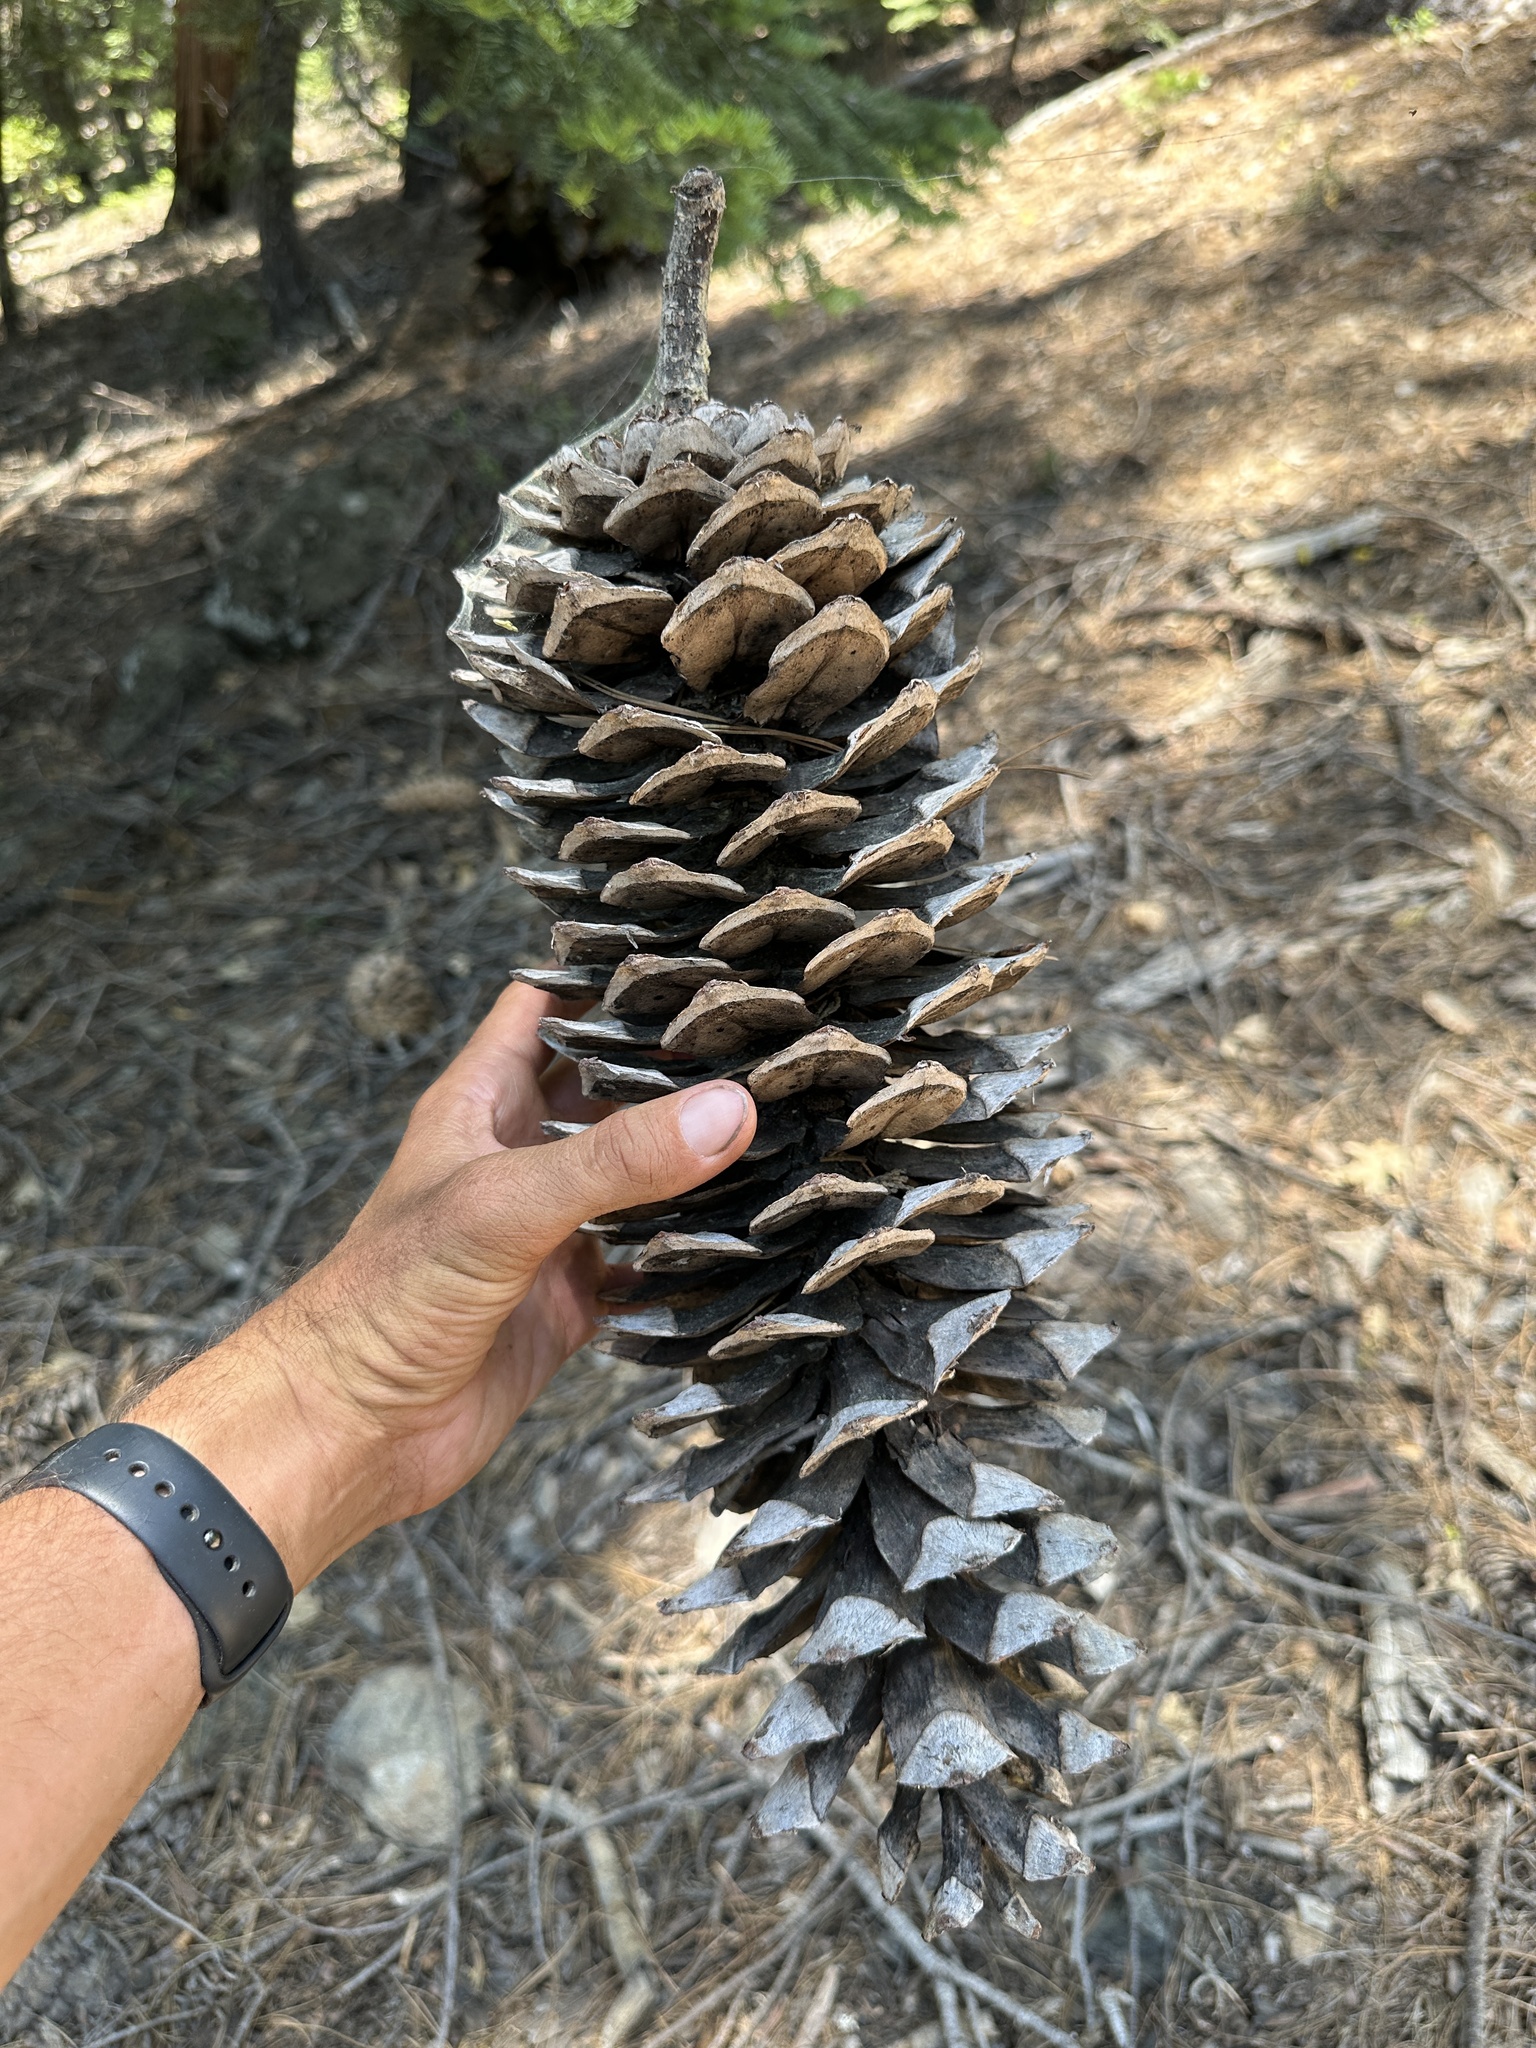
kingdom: Plantae
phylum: Tracheophyta
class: Pinopsida
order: Pinales
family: Pinaceae
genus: Pinus
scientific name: Pinus lambertiana
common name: Sugar pine
